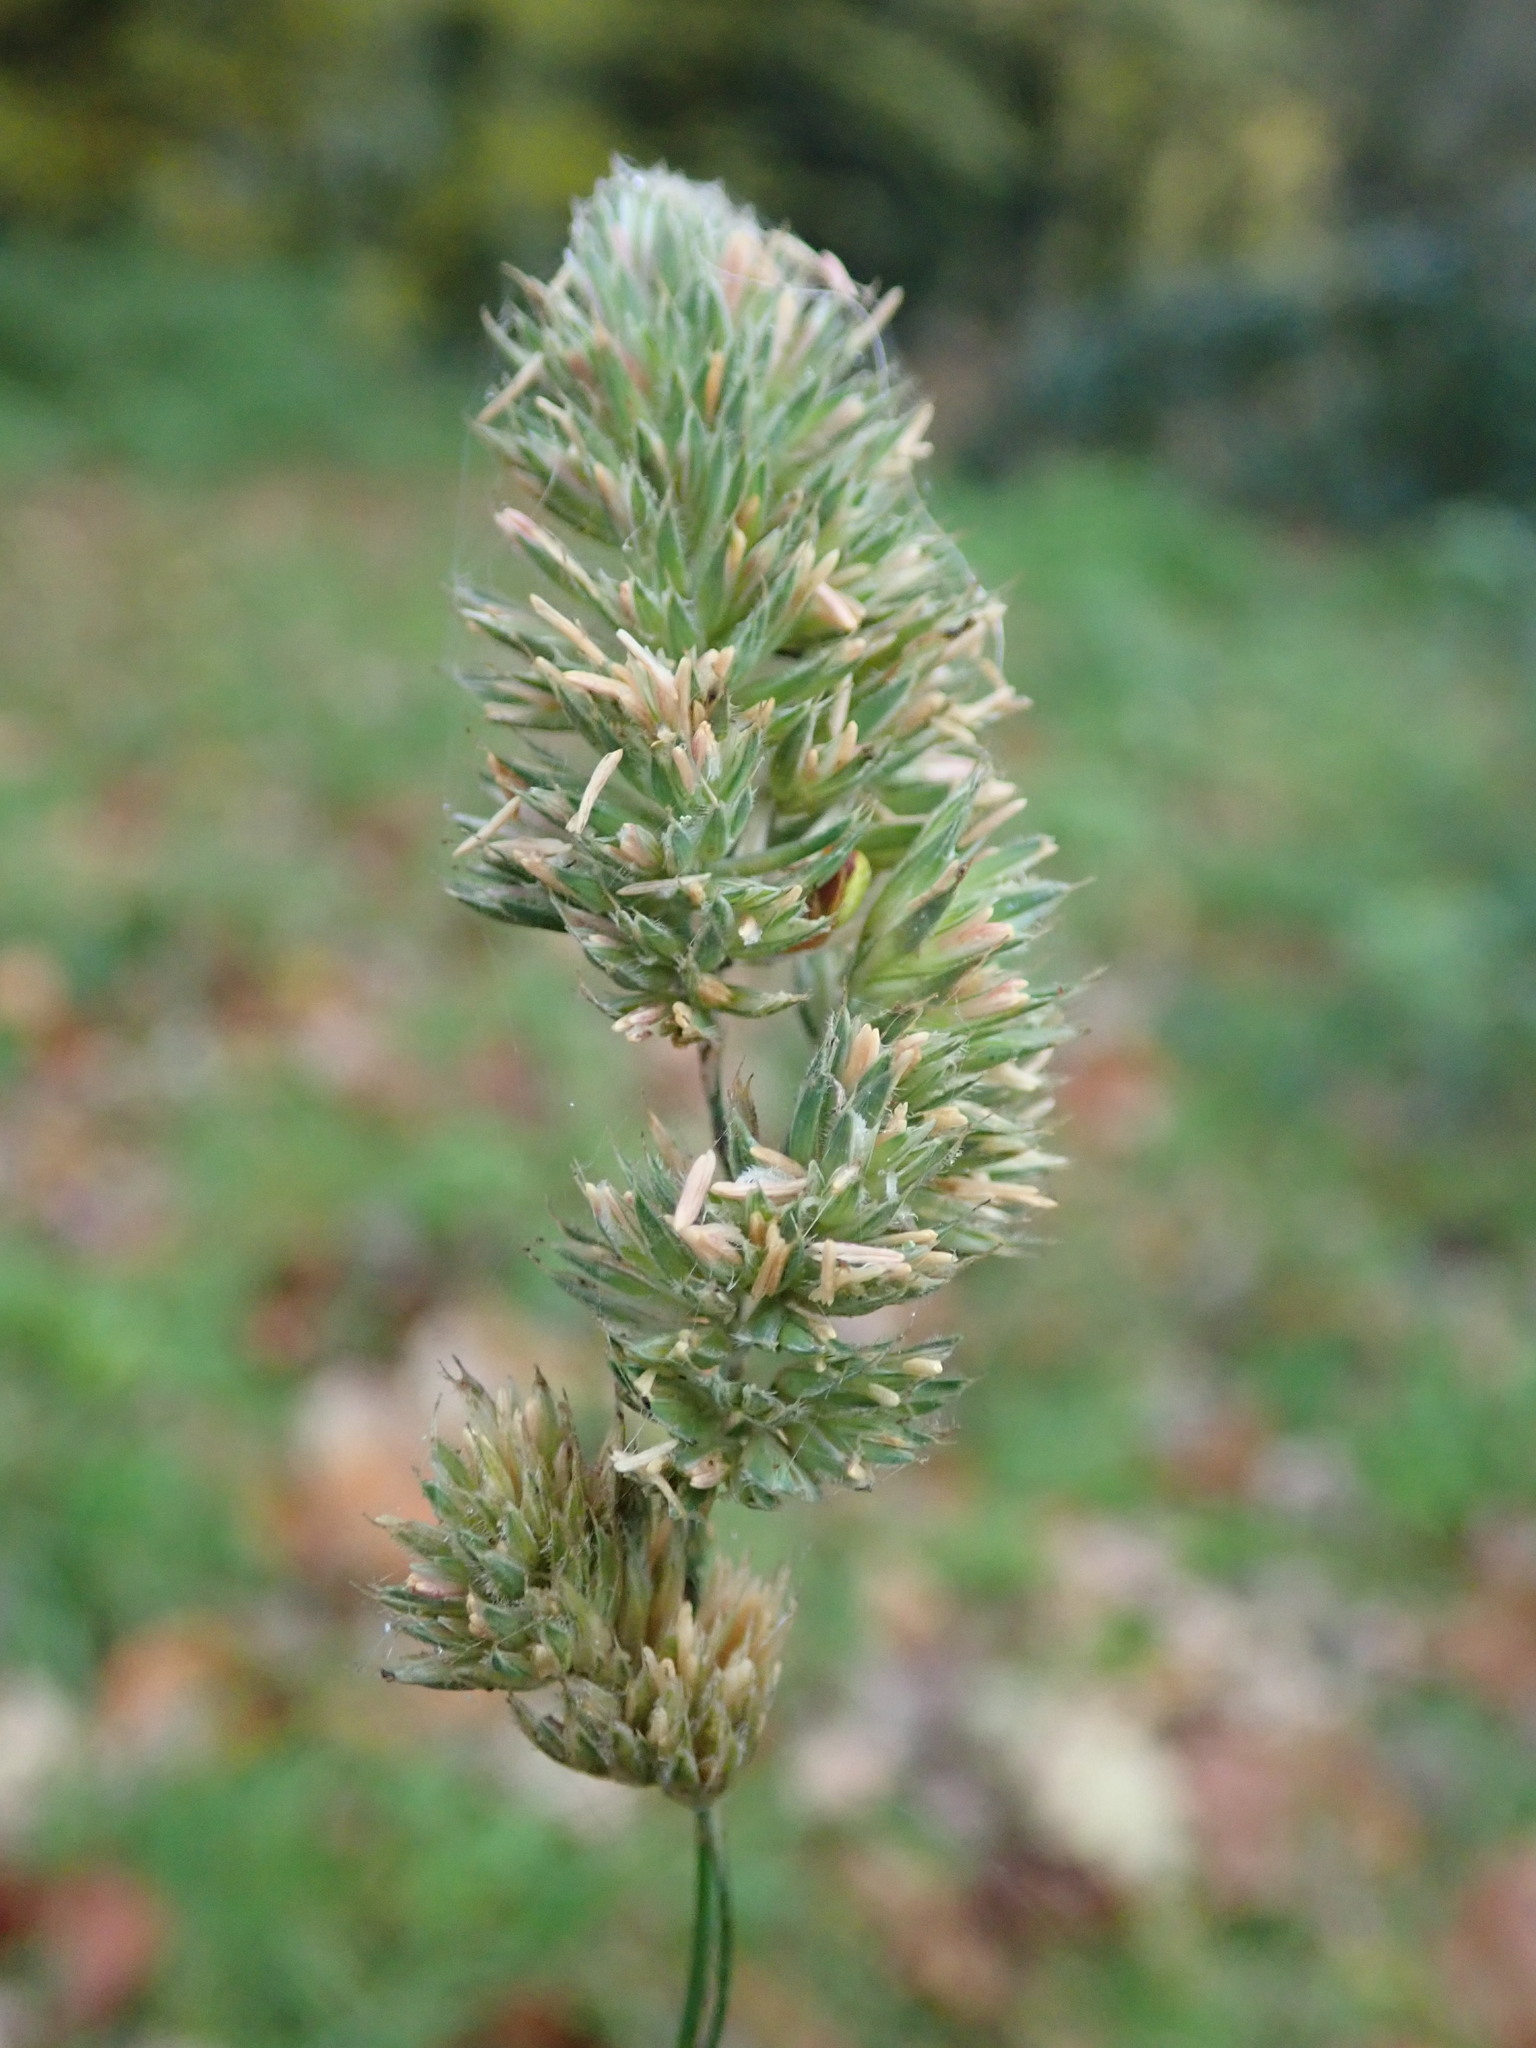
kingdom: Plantae
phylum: Tracheophyta
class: Liliopsida
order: Poales
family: Poaceae
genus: Dactylis
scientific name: Dactylis glomerata
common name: Orchardgrass
